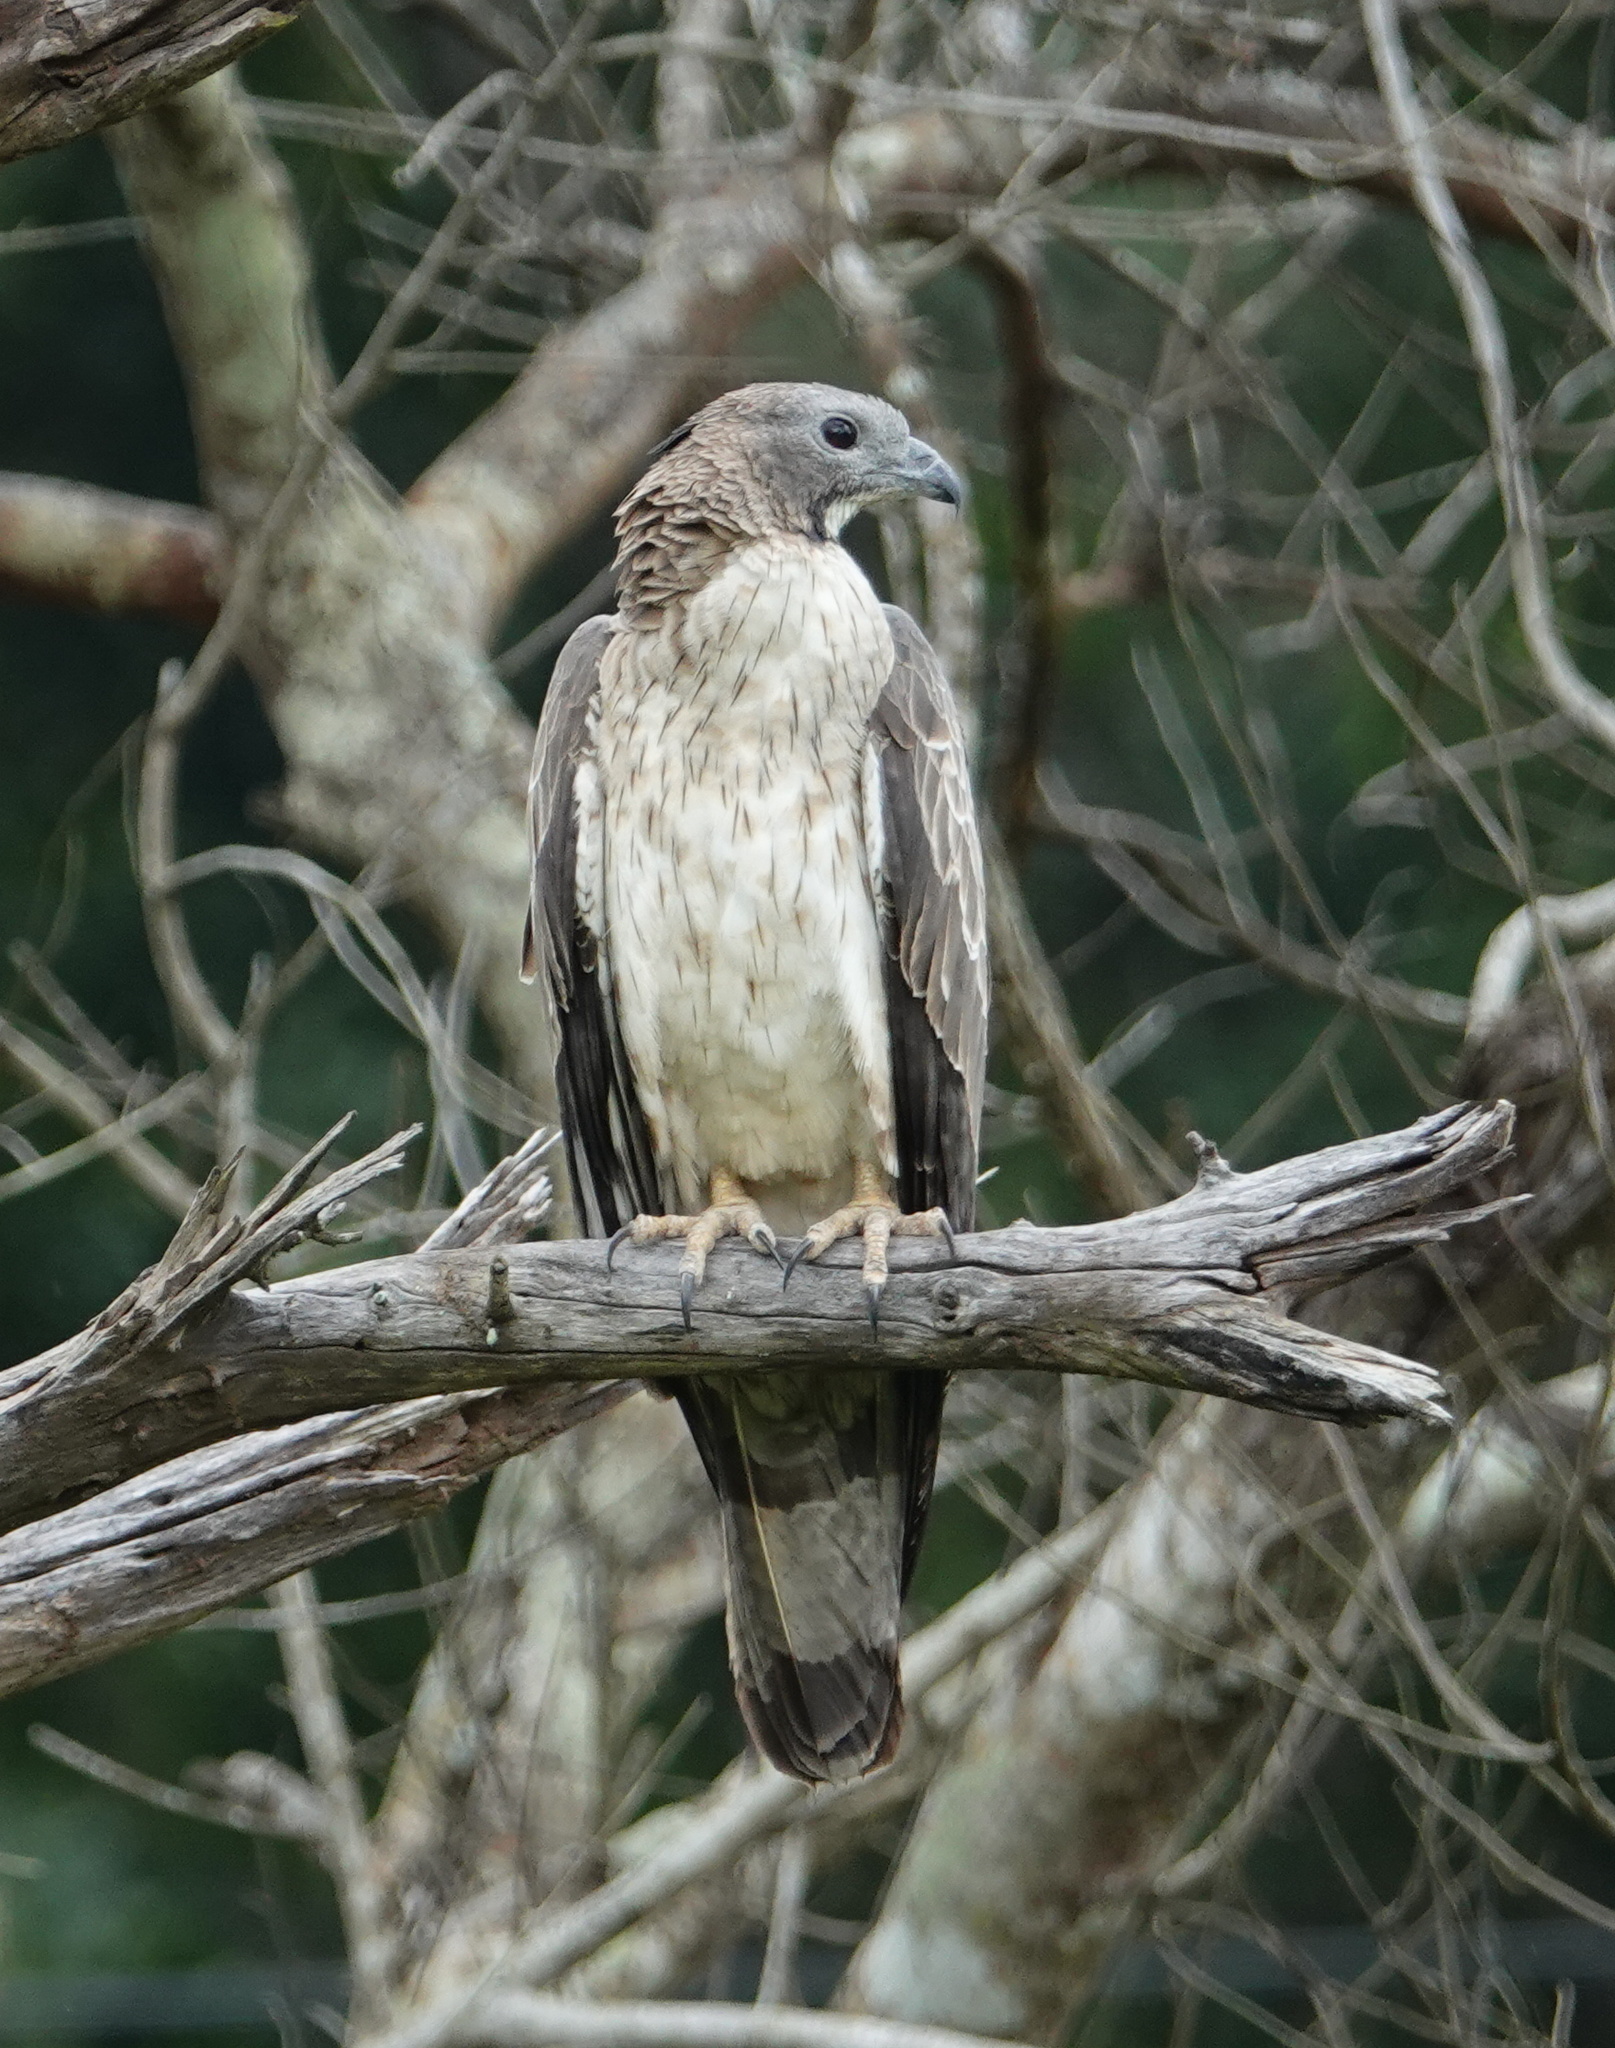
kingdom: Animalia
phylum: Chordata
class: Aves
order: Accipitriformes
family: Accipitridae
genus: Pernis
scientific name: Pernis ptilorhynchus
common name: Crested honey buzzard
